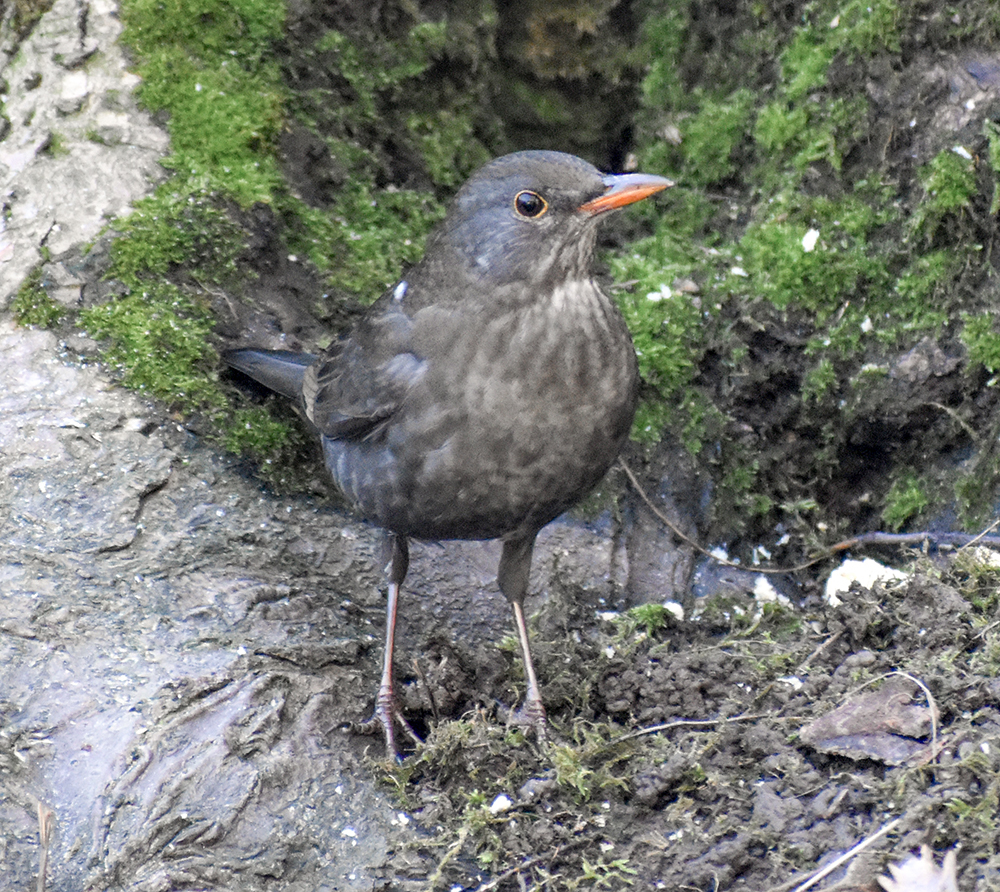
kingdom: Animalia
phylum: Chordata
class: Aves
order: Passeriformes
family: Turdidae
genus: Turdus
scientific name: Turdus merula
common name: Common blackbird
